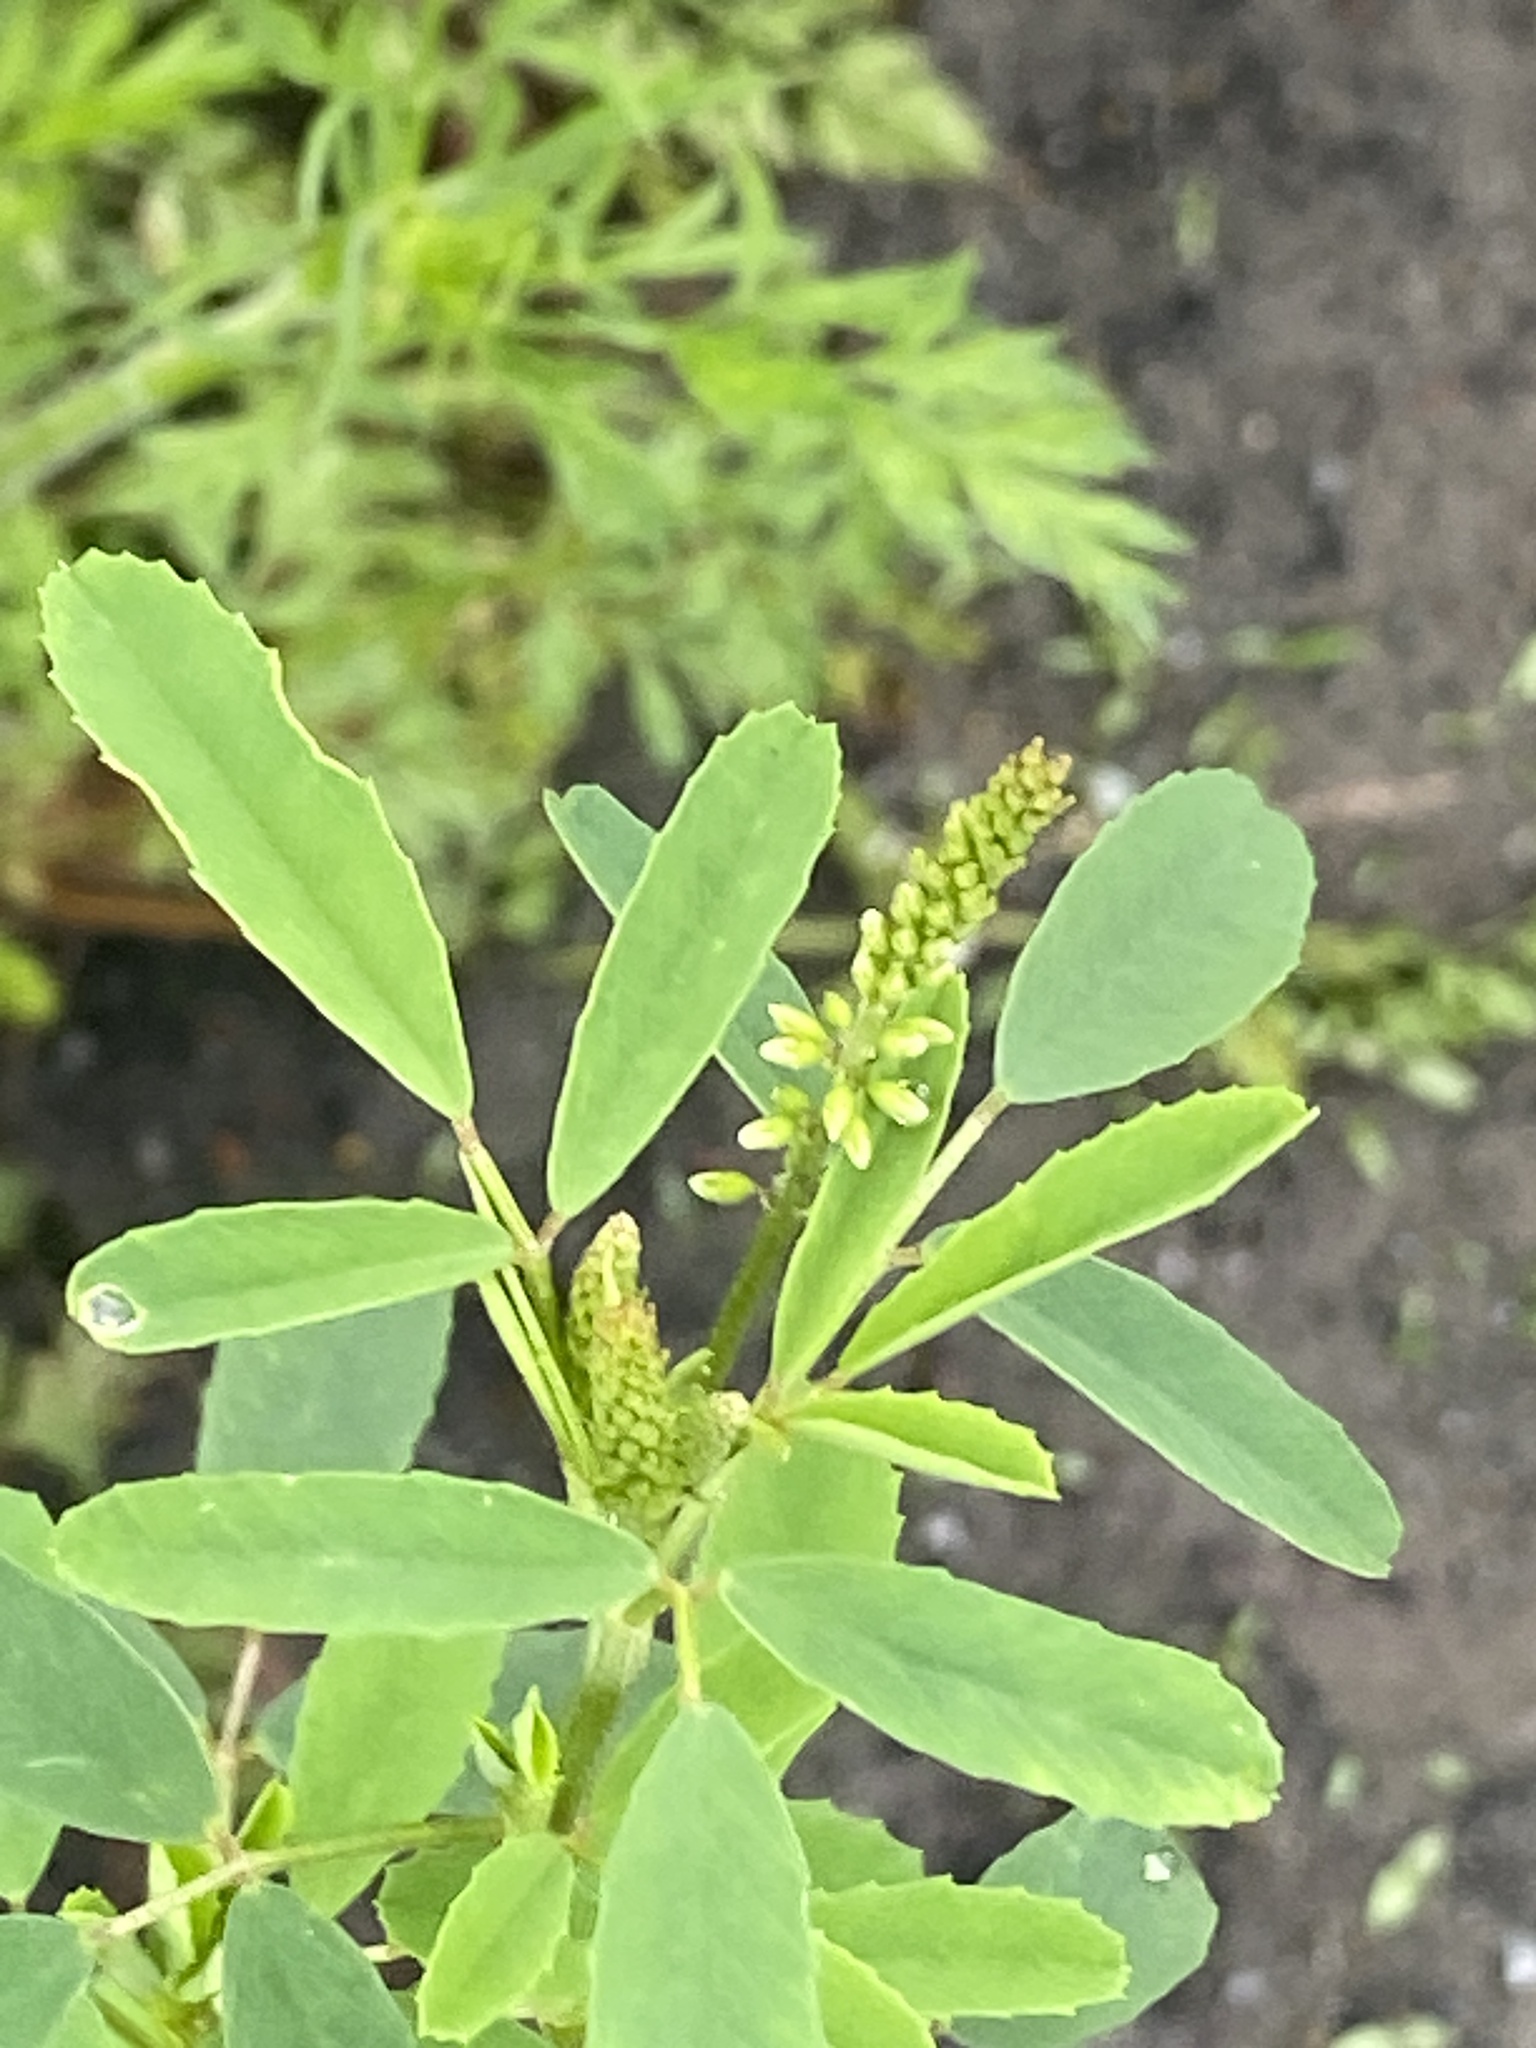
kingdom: Plantae
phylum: Tracheophyta
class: Magnoliopsida
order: Fabales
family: Fabaceae
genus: Melilotus
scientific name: Melilotus albus
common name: White melilot
